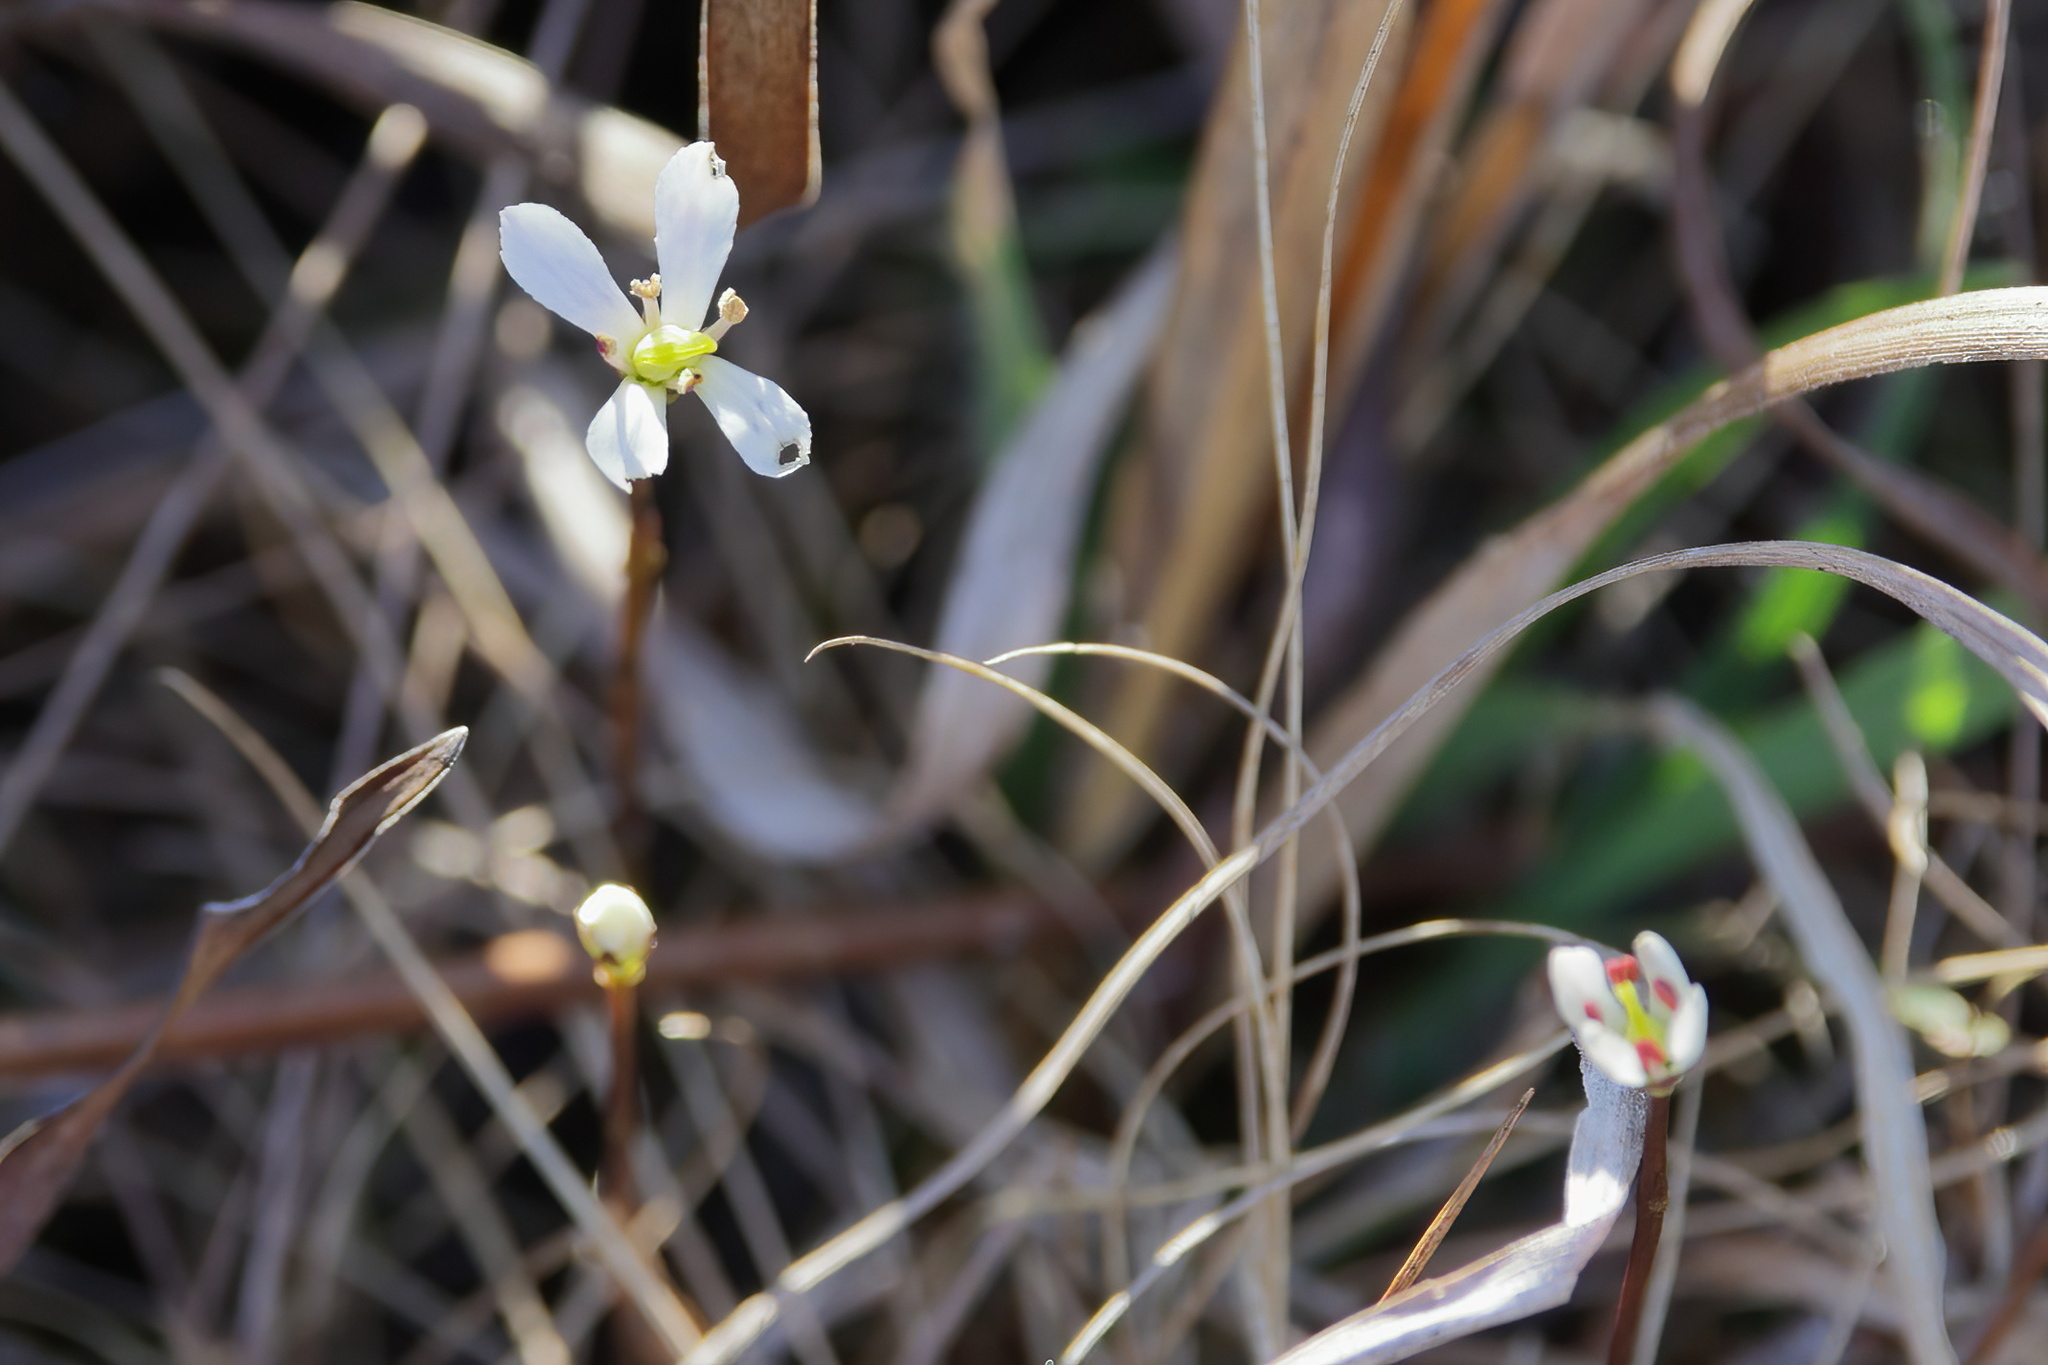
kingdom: Plantae
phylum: Tracheophyta
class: Magnoliopsida
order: Gentianales
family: Gentianaceae
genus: Bartonia
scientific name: Bartonia verna
